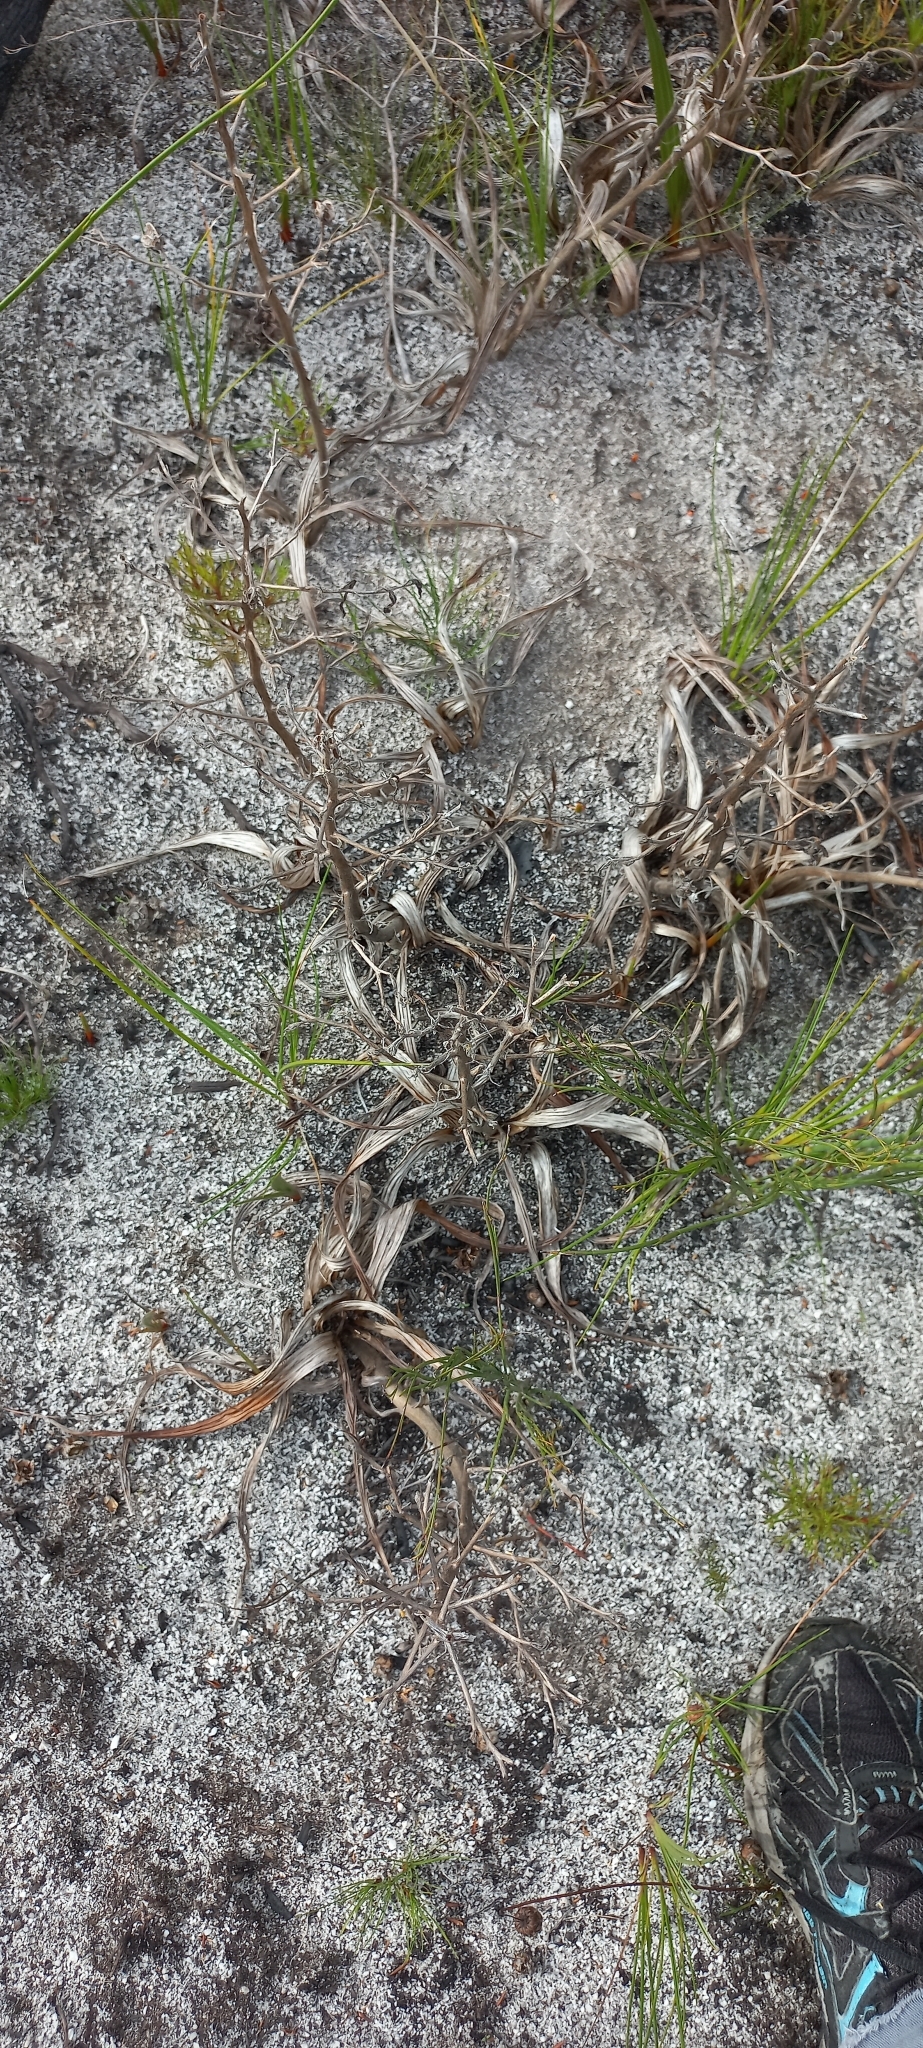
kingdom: Plantae
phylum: Tracheophyta
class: Liliopsida
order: Commelinales
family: Haemodoraceae
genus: Wachendorfia
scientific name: Wachendorfia paniculata
